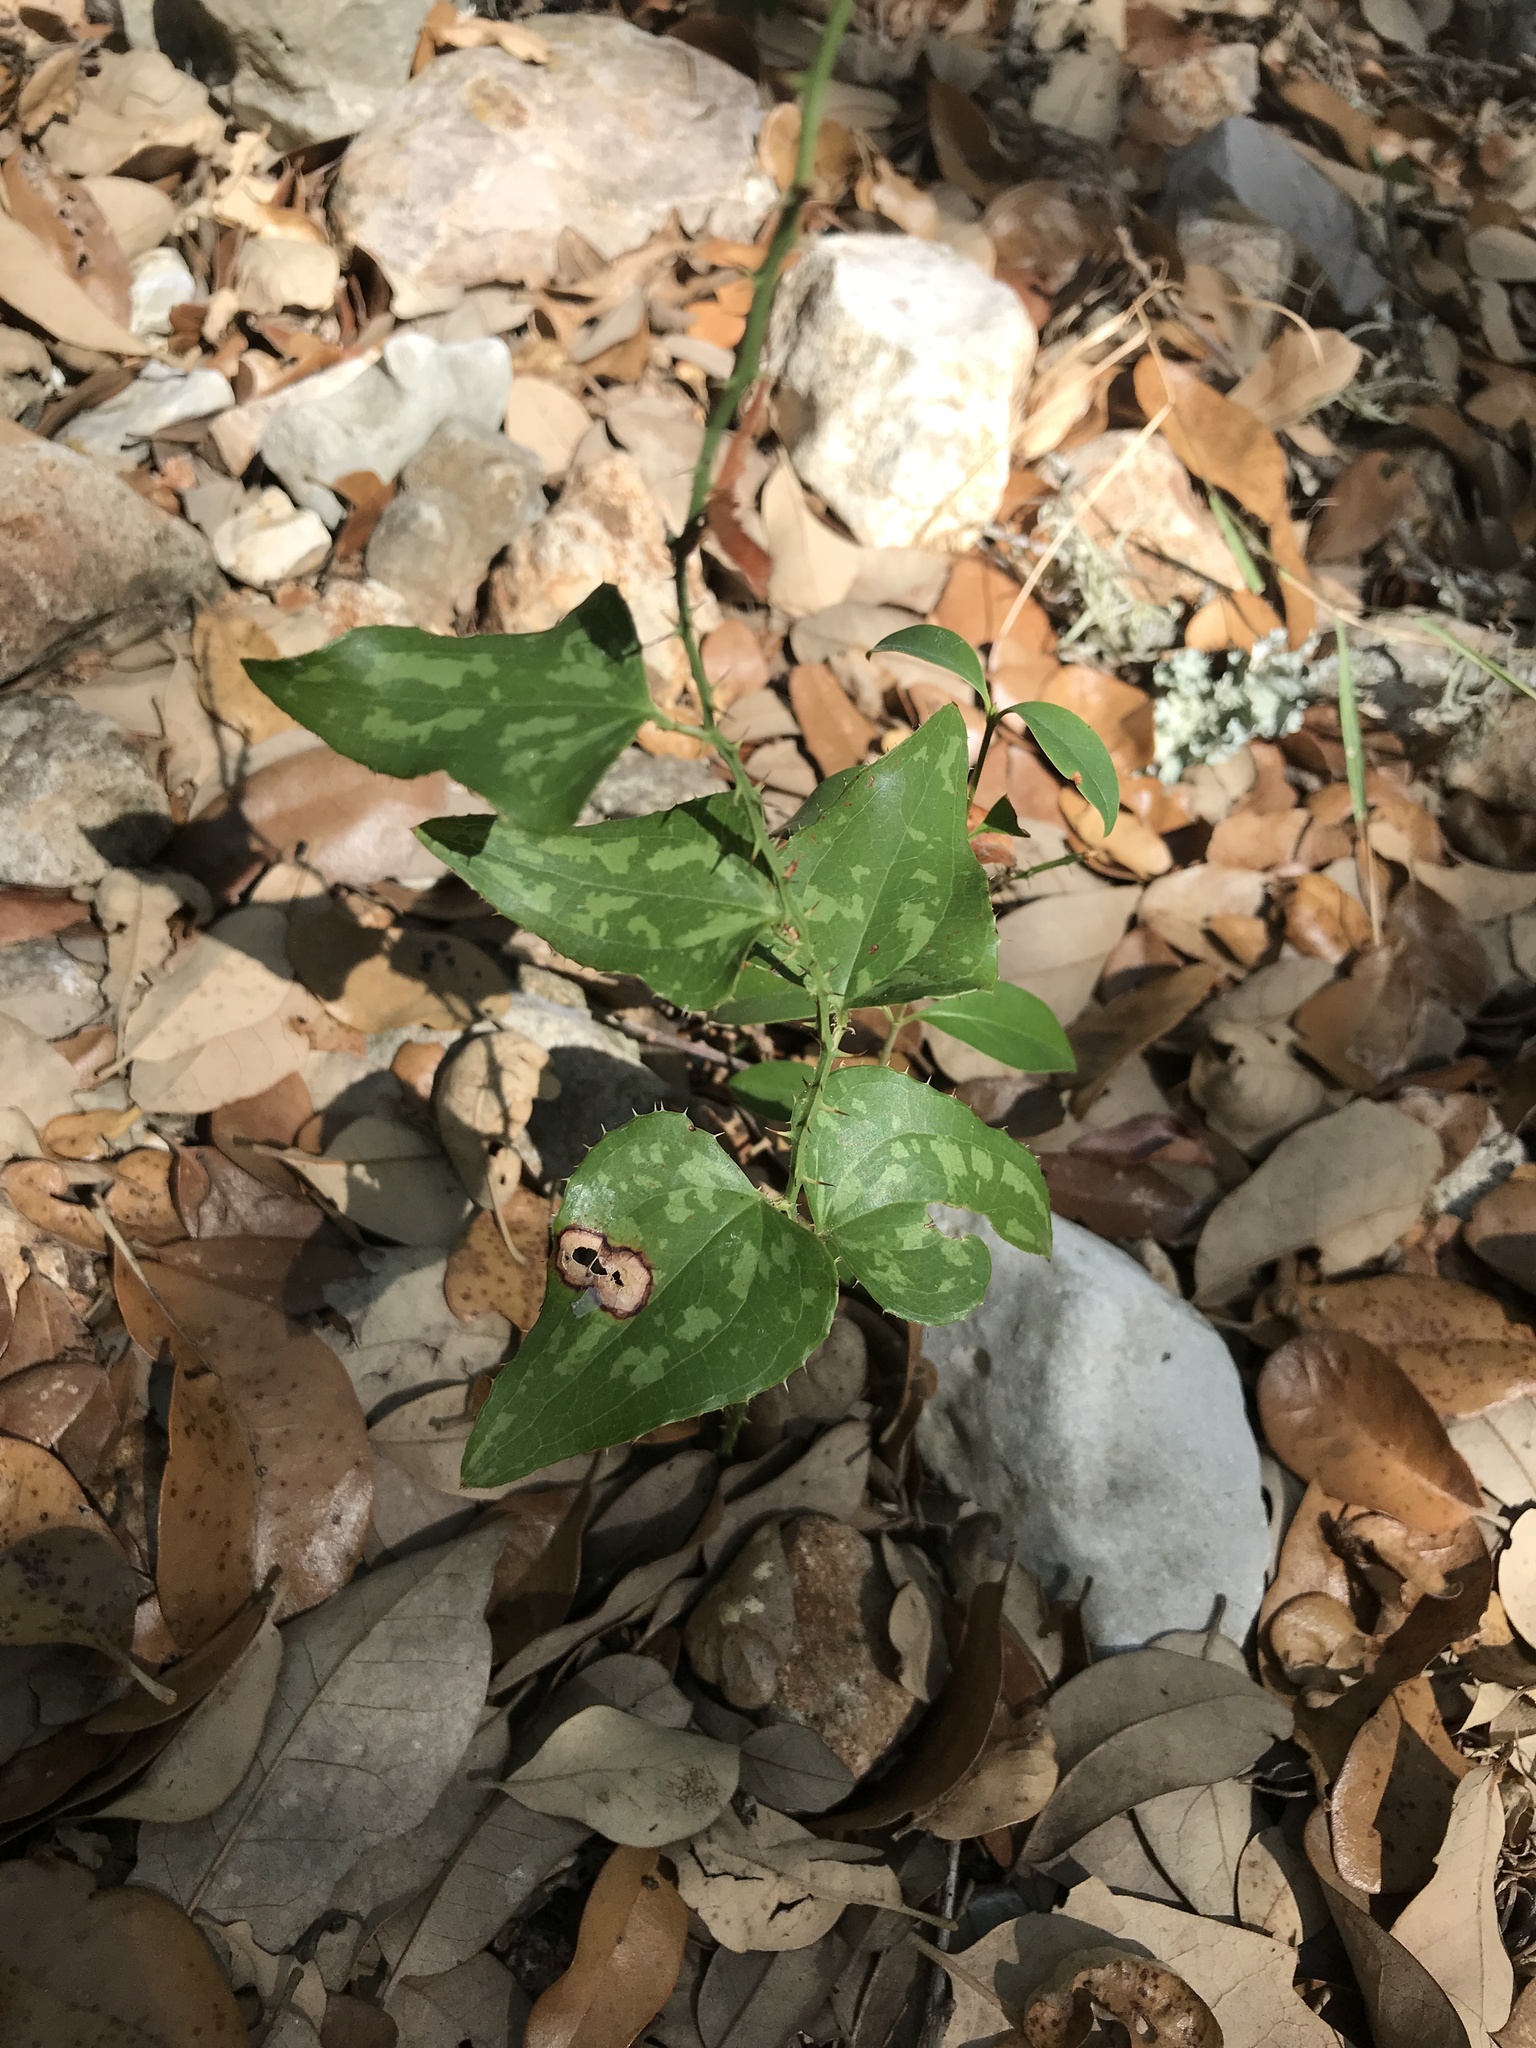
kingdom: Plantae
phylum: Tracheophyta
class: Liliopsida
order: Liliales
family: Smilacaceae
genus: Smilax
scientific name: Smilax bona-nox
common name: Catbrier
